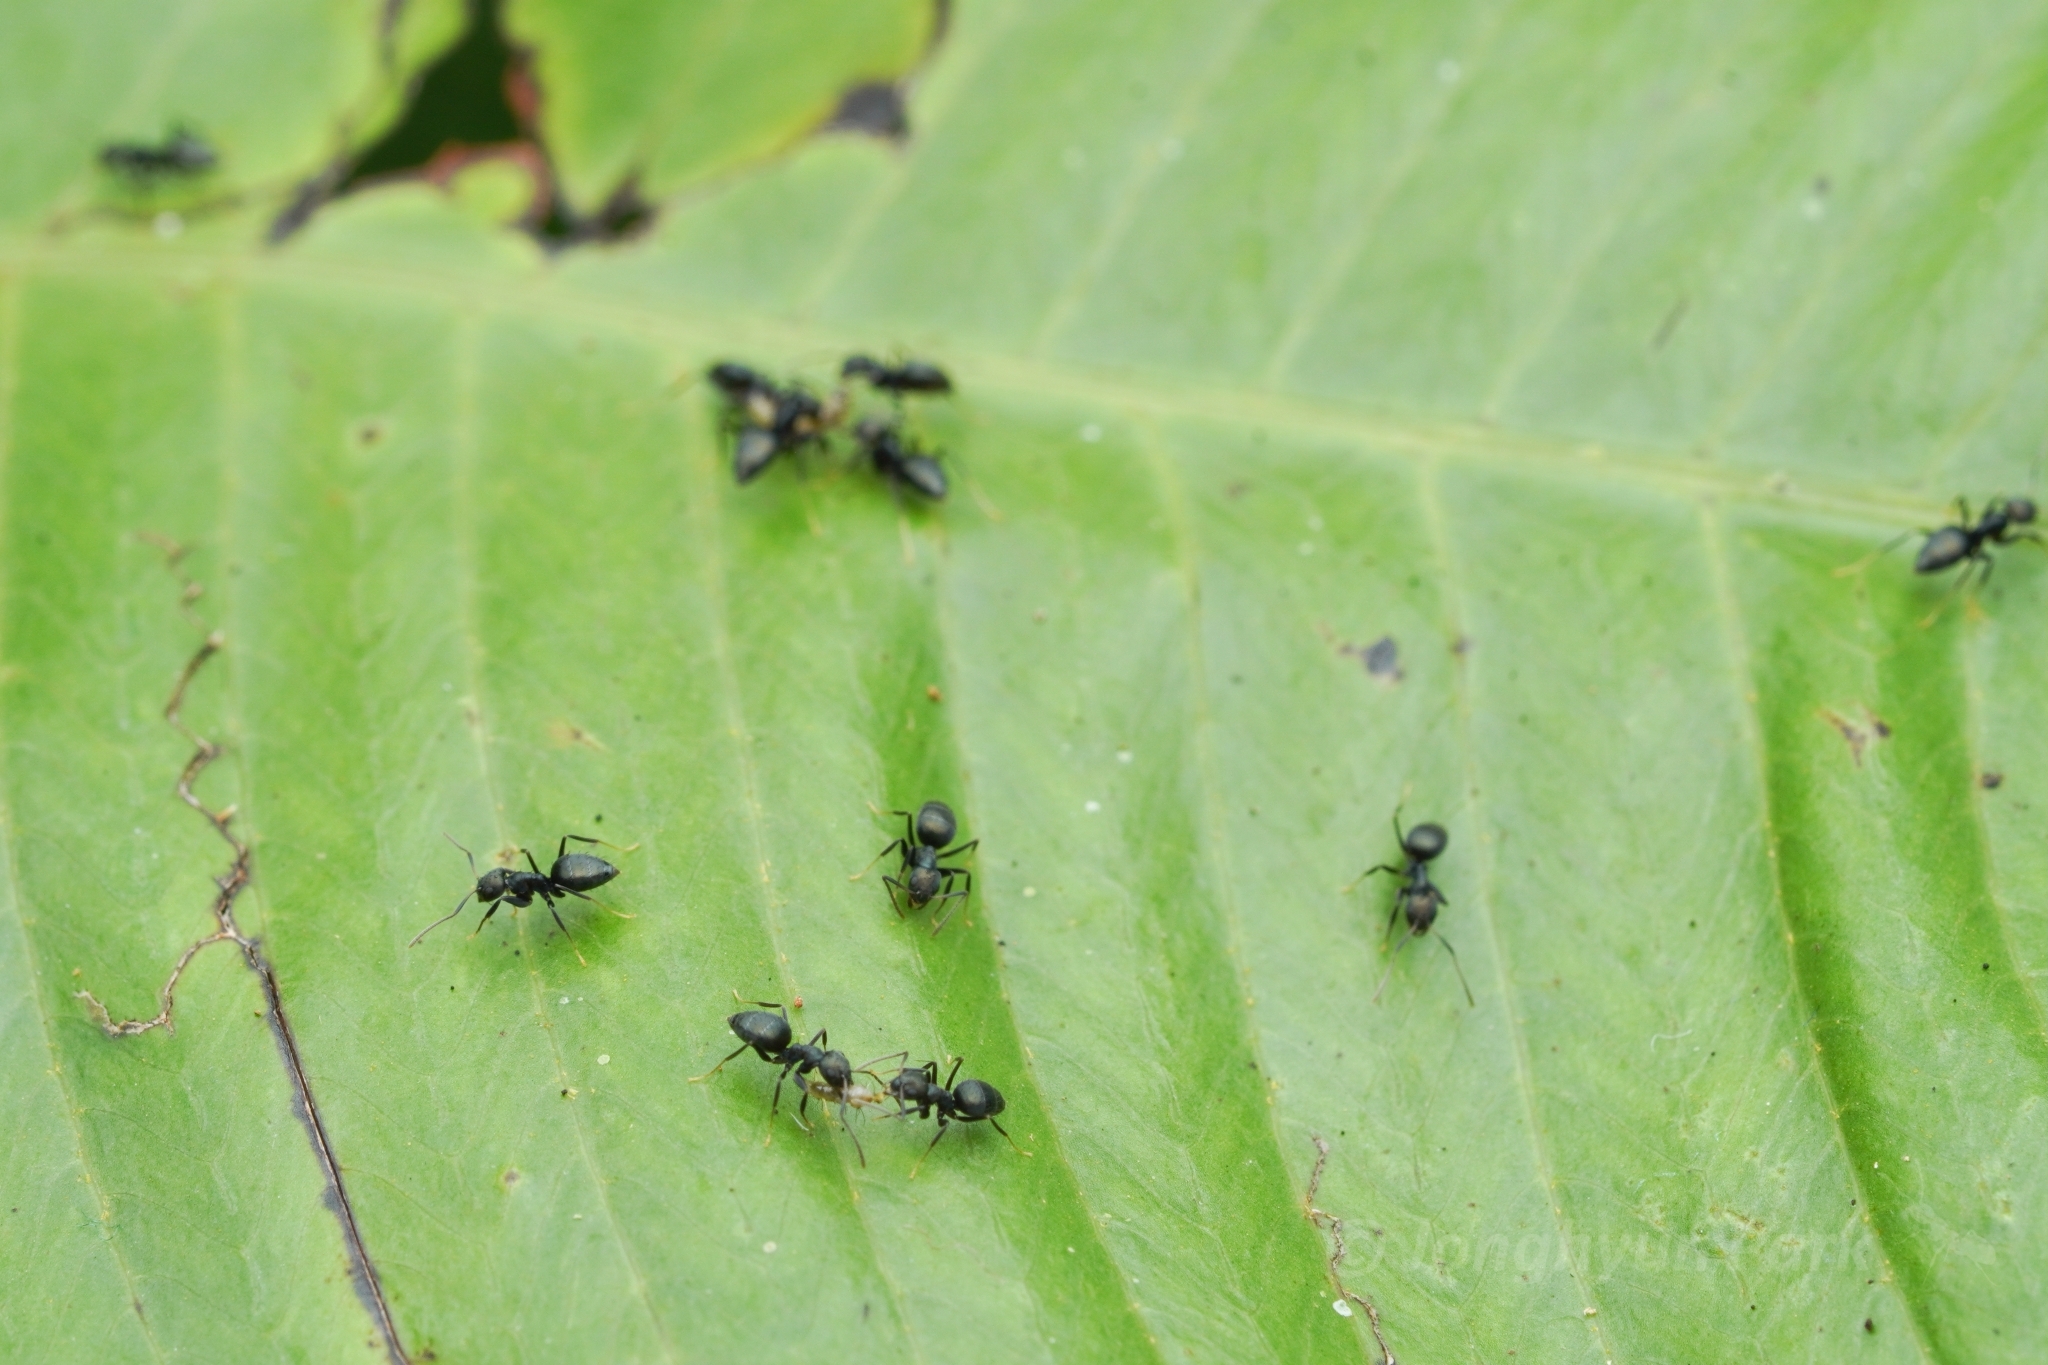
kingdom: Animalia
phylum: Arthropoda
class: Insecta
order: Hymenoptera
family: Formicidae
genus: Paraparatrechina
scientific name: Paraparatrechina opaca
